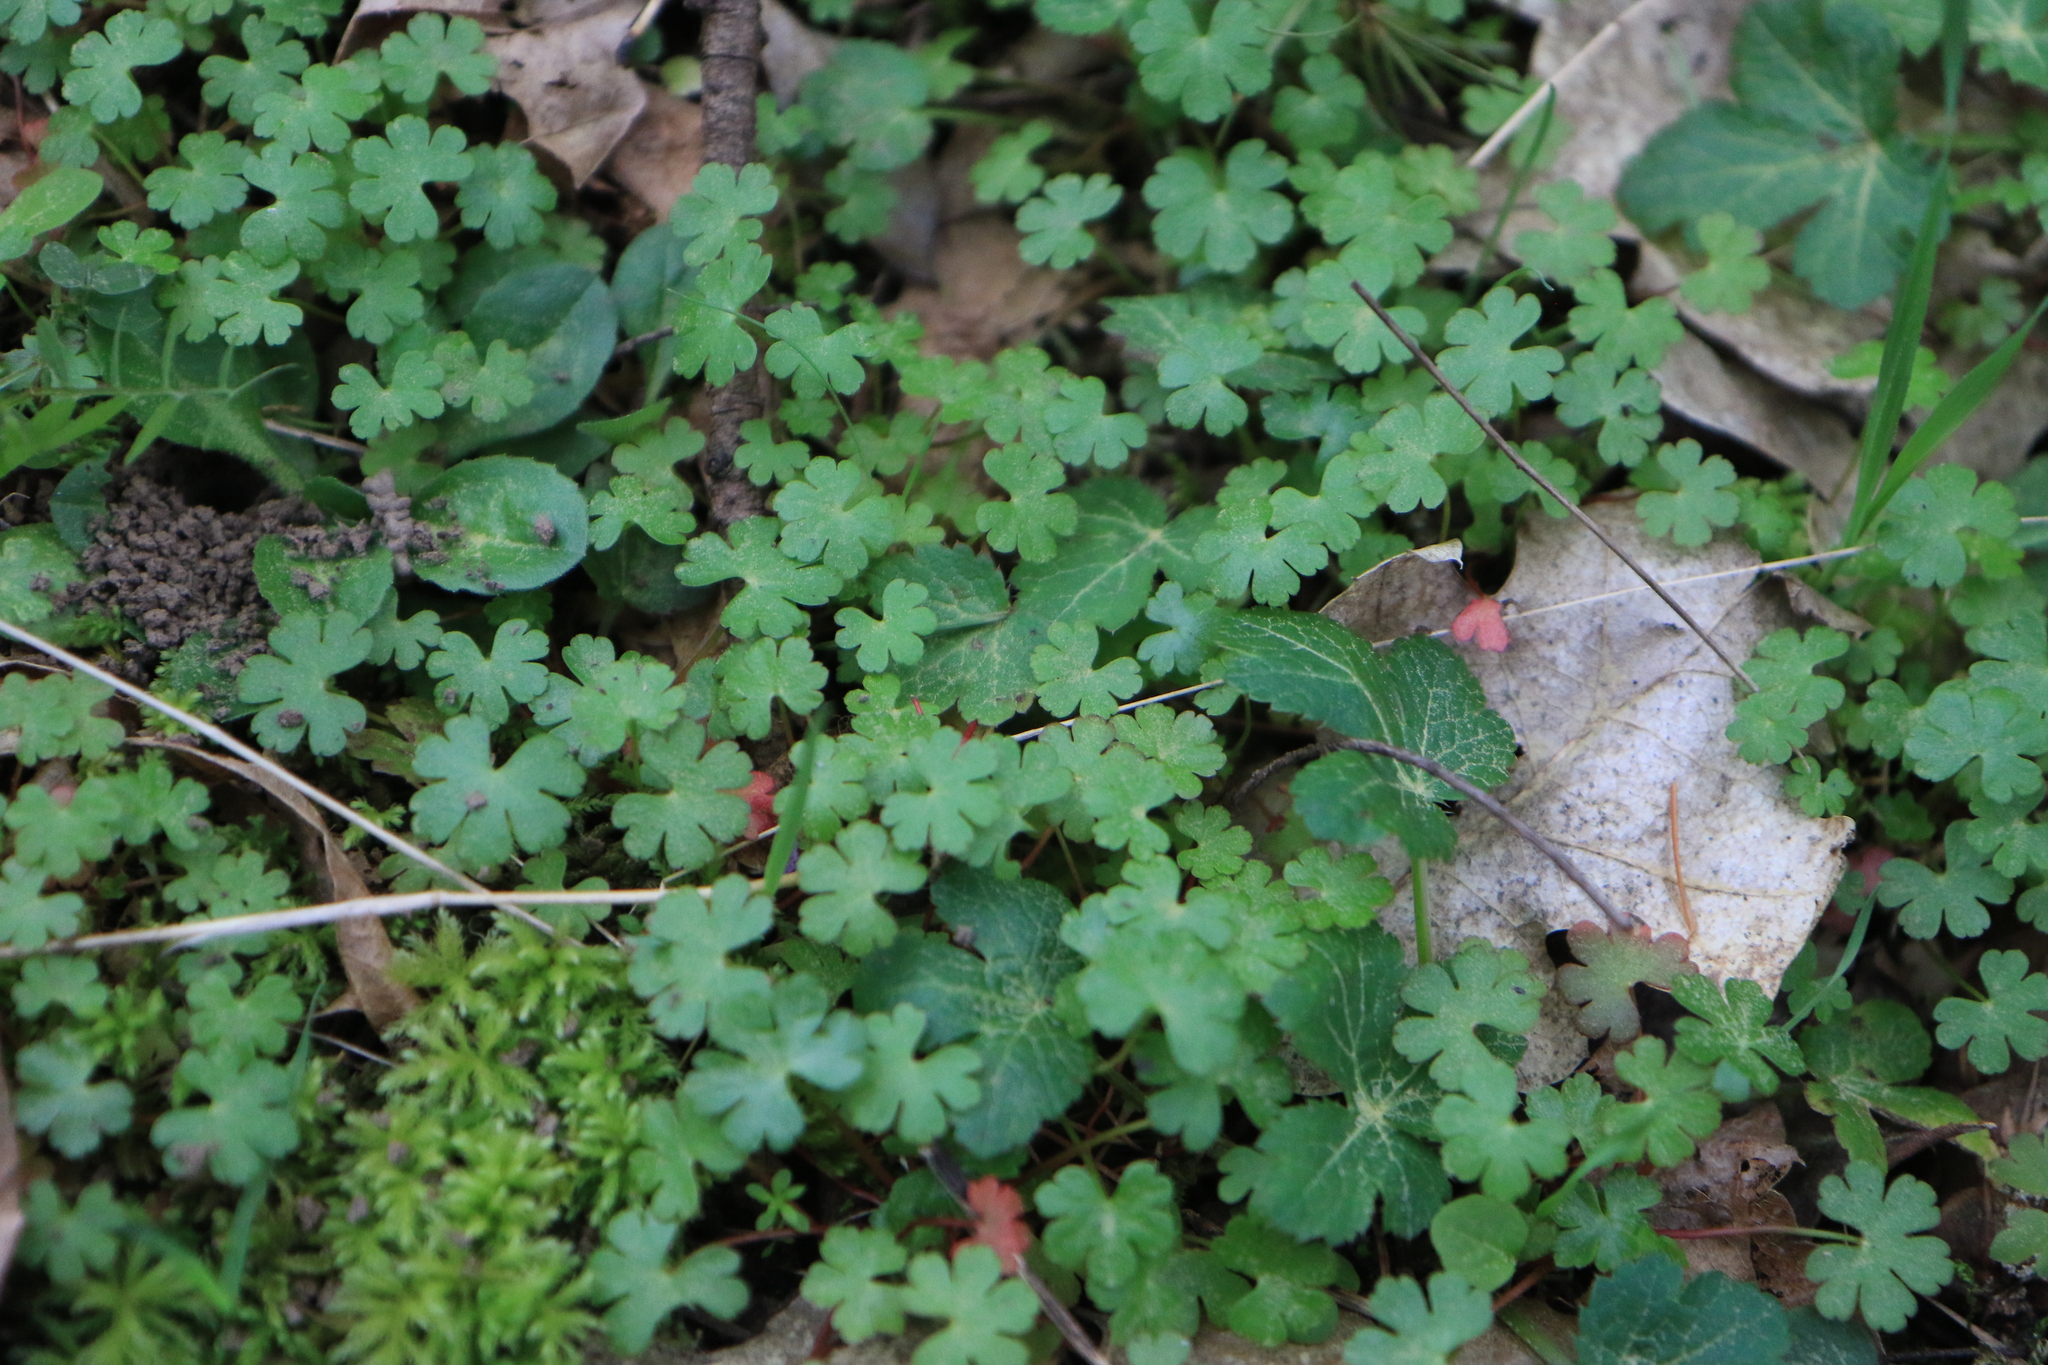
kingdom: Plantae
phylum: Tracheophyta
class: Magnoliopsida
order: Geraniales
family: Geraniaceae
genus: Geranium
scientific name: Geranium lucidum
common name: Shining crane's-bill
